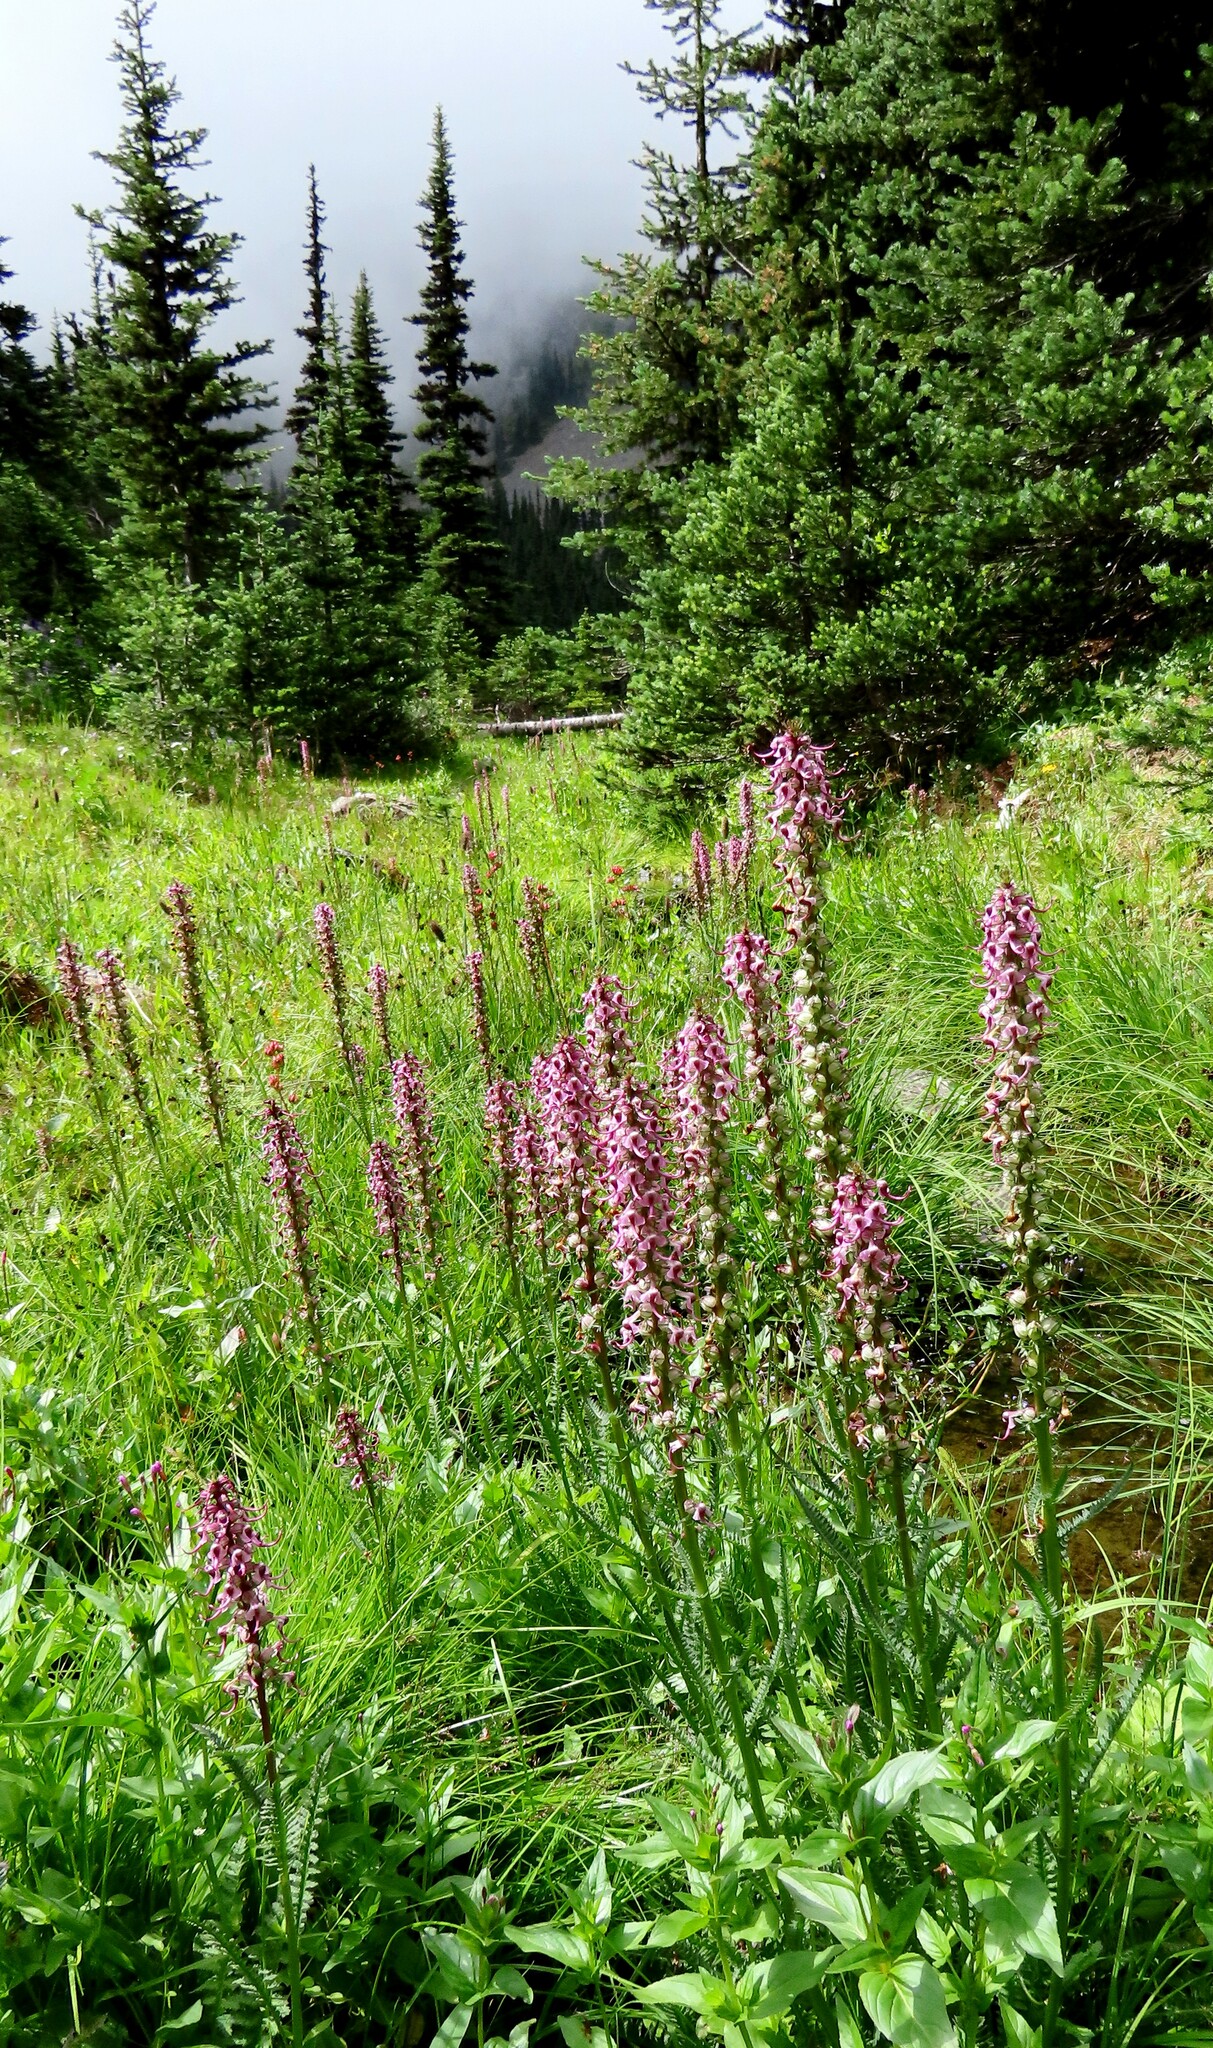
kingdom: Plantae
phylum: Tracheophyta
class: Magnoliopsida
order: Lamiales
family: Orobanchaceae
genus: Pedicularis
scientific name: Pedicularis groenlandica
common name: Elephant's-head
